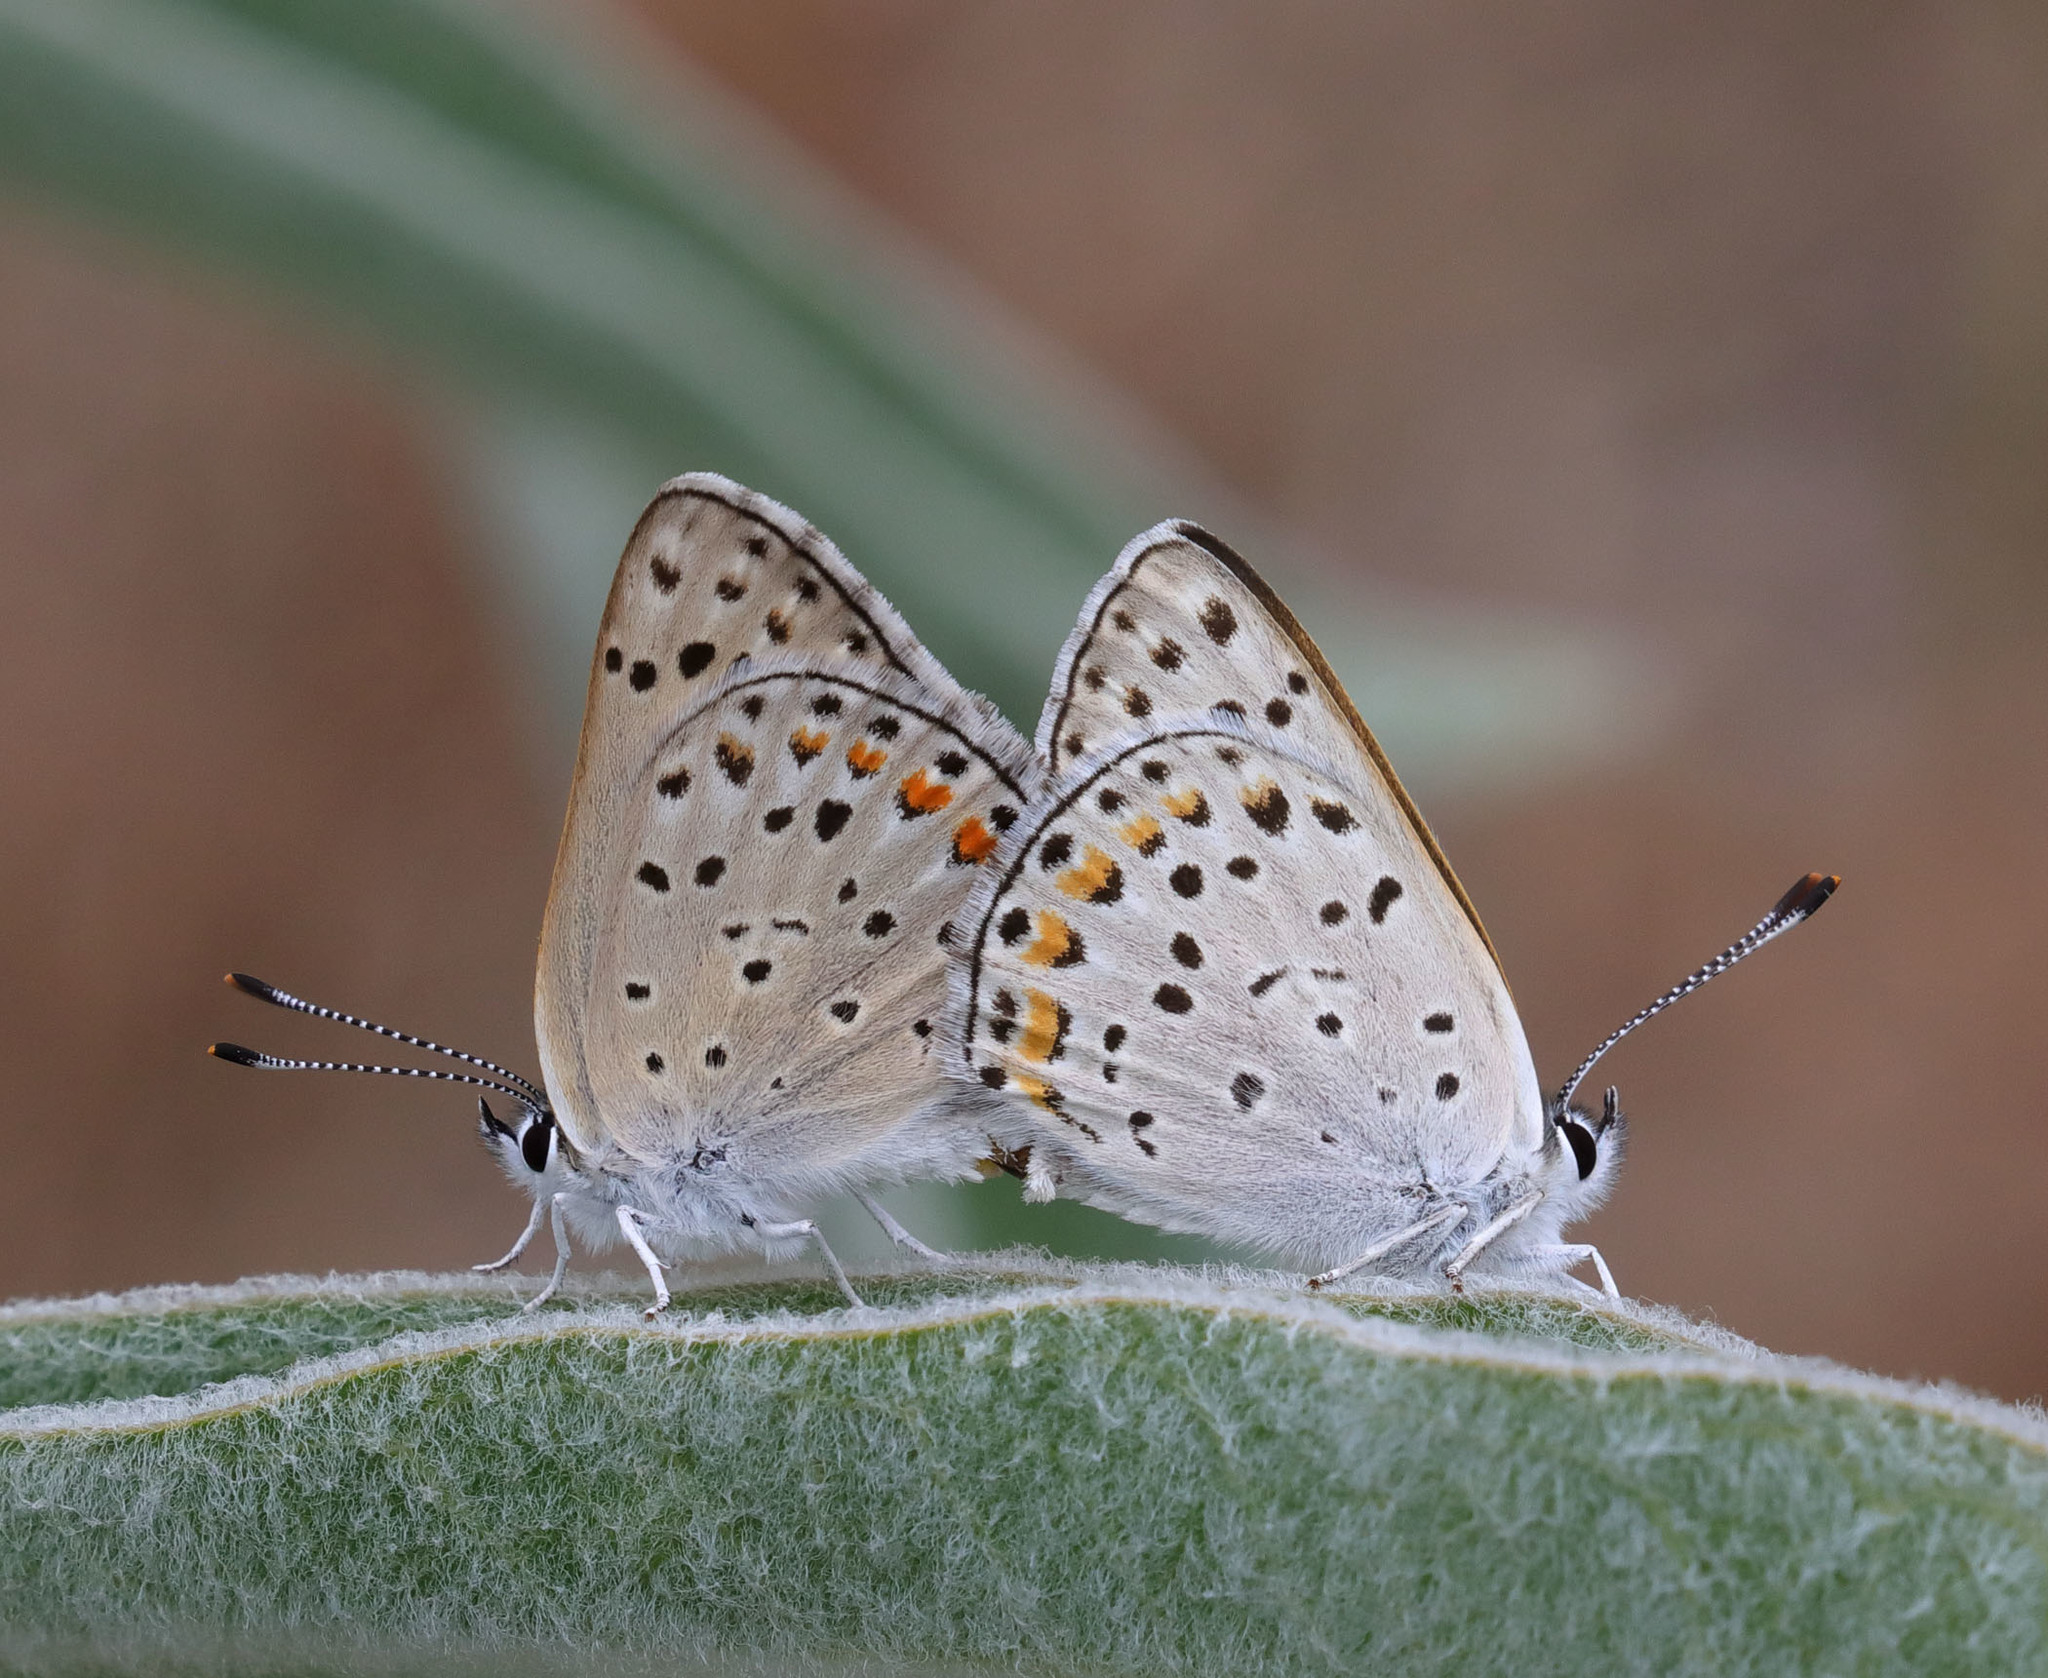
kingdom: Animalia
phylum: Arthropoda
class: Insecta
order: Lepidoptera
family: Lycaenidae
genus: Tharsalea
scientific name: Tharsalea gorgon
